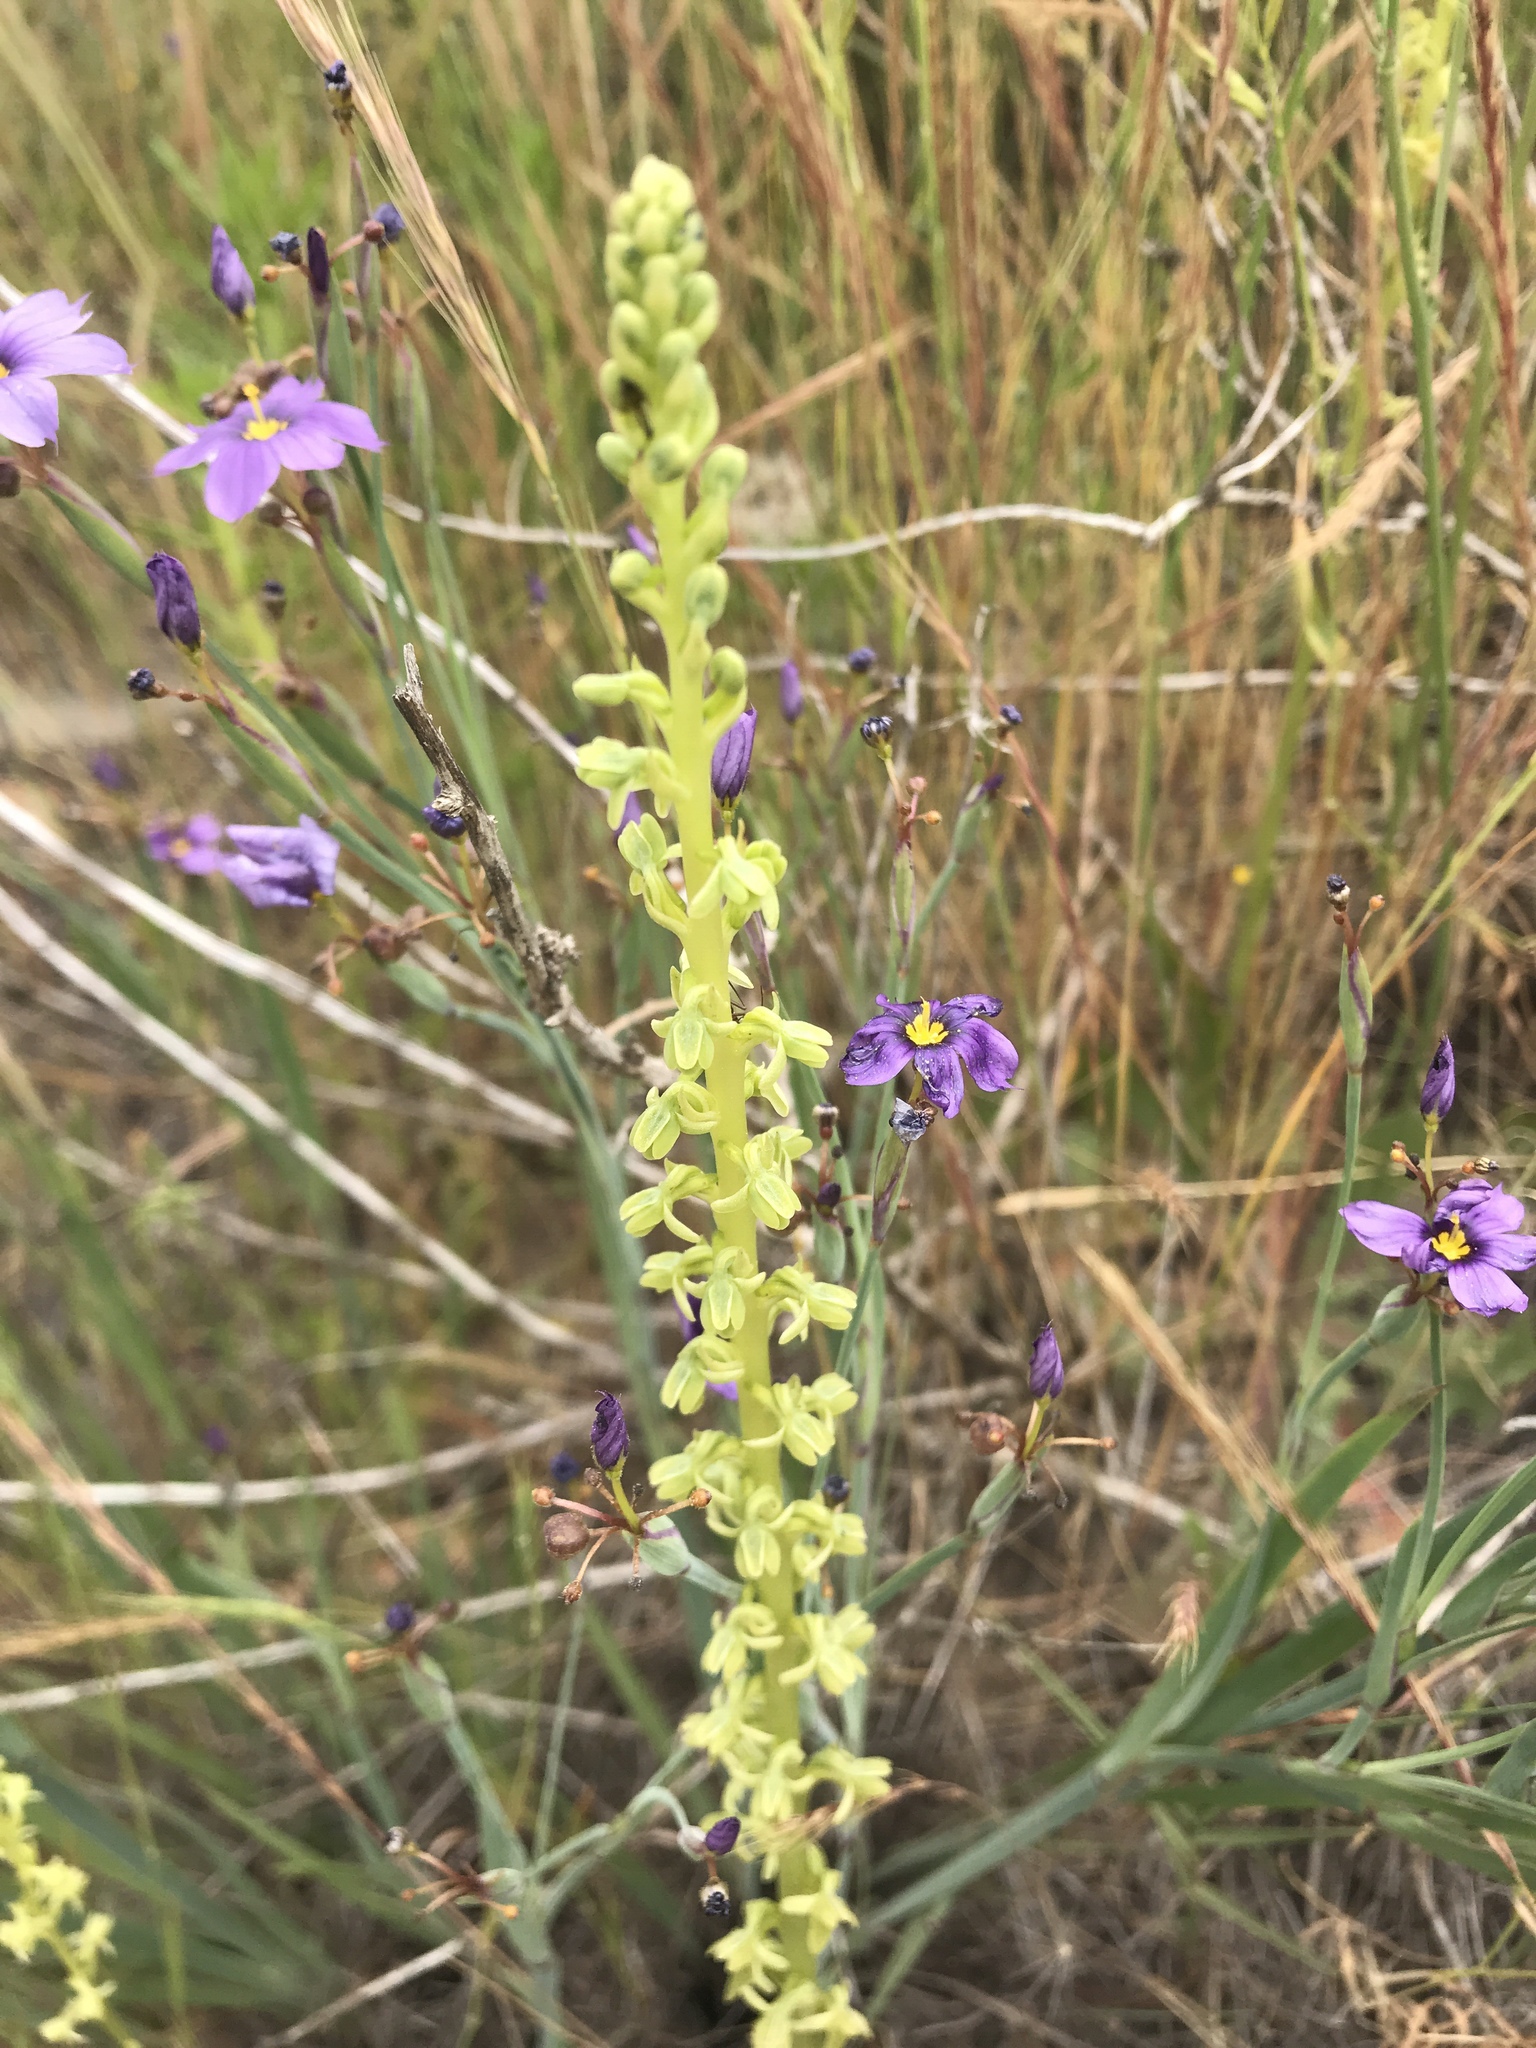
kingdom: Plantae
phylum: Tracheophyta
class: Liliopsida
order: Asparagales
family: Orchidaceae
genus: Platanthera
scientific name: Platanthera cooperi
